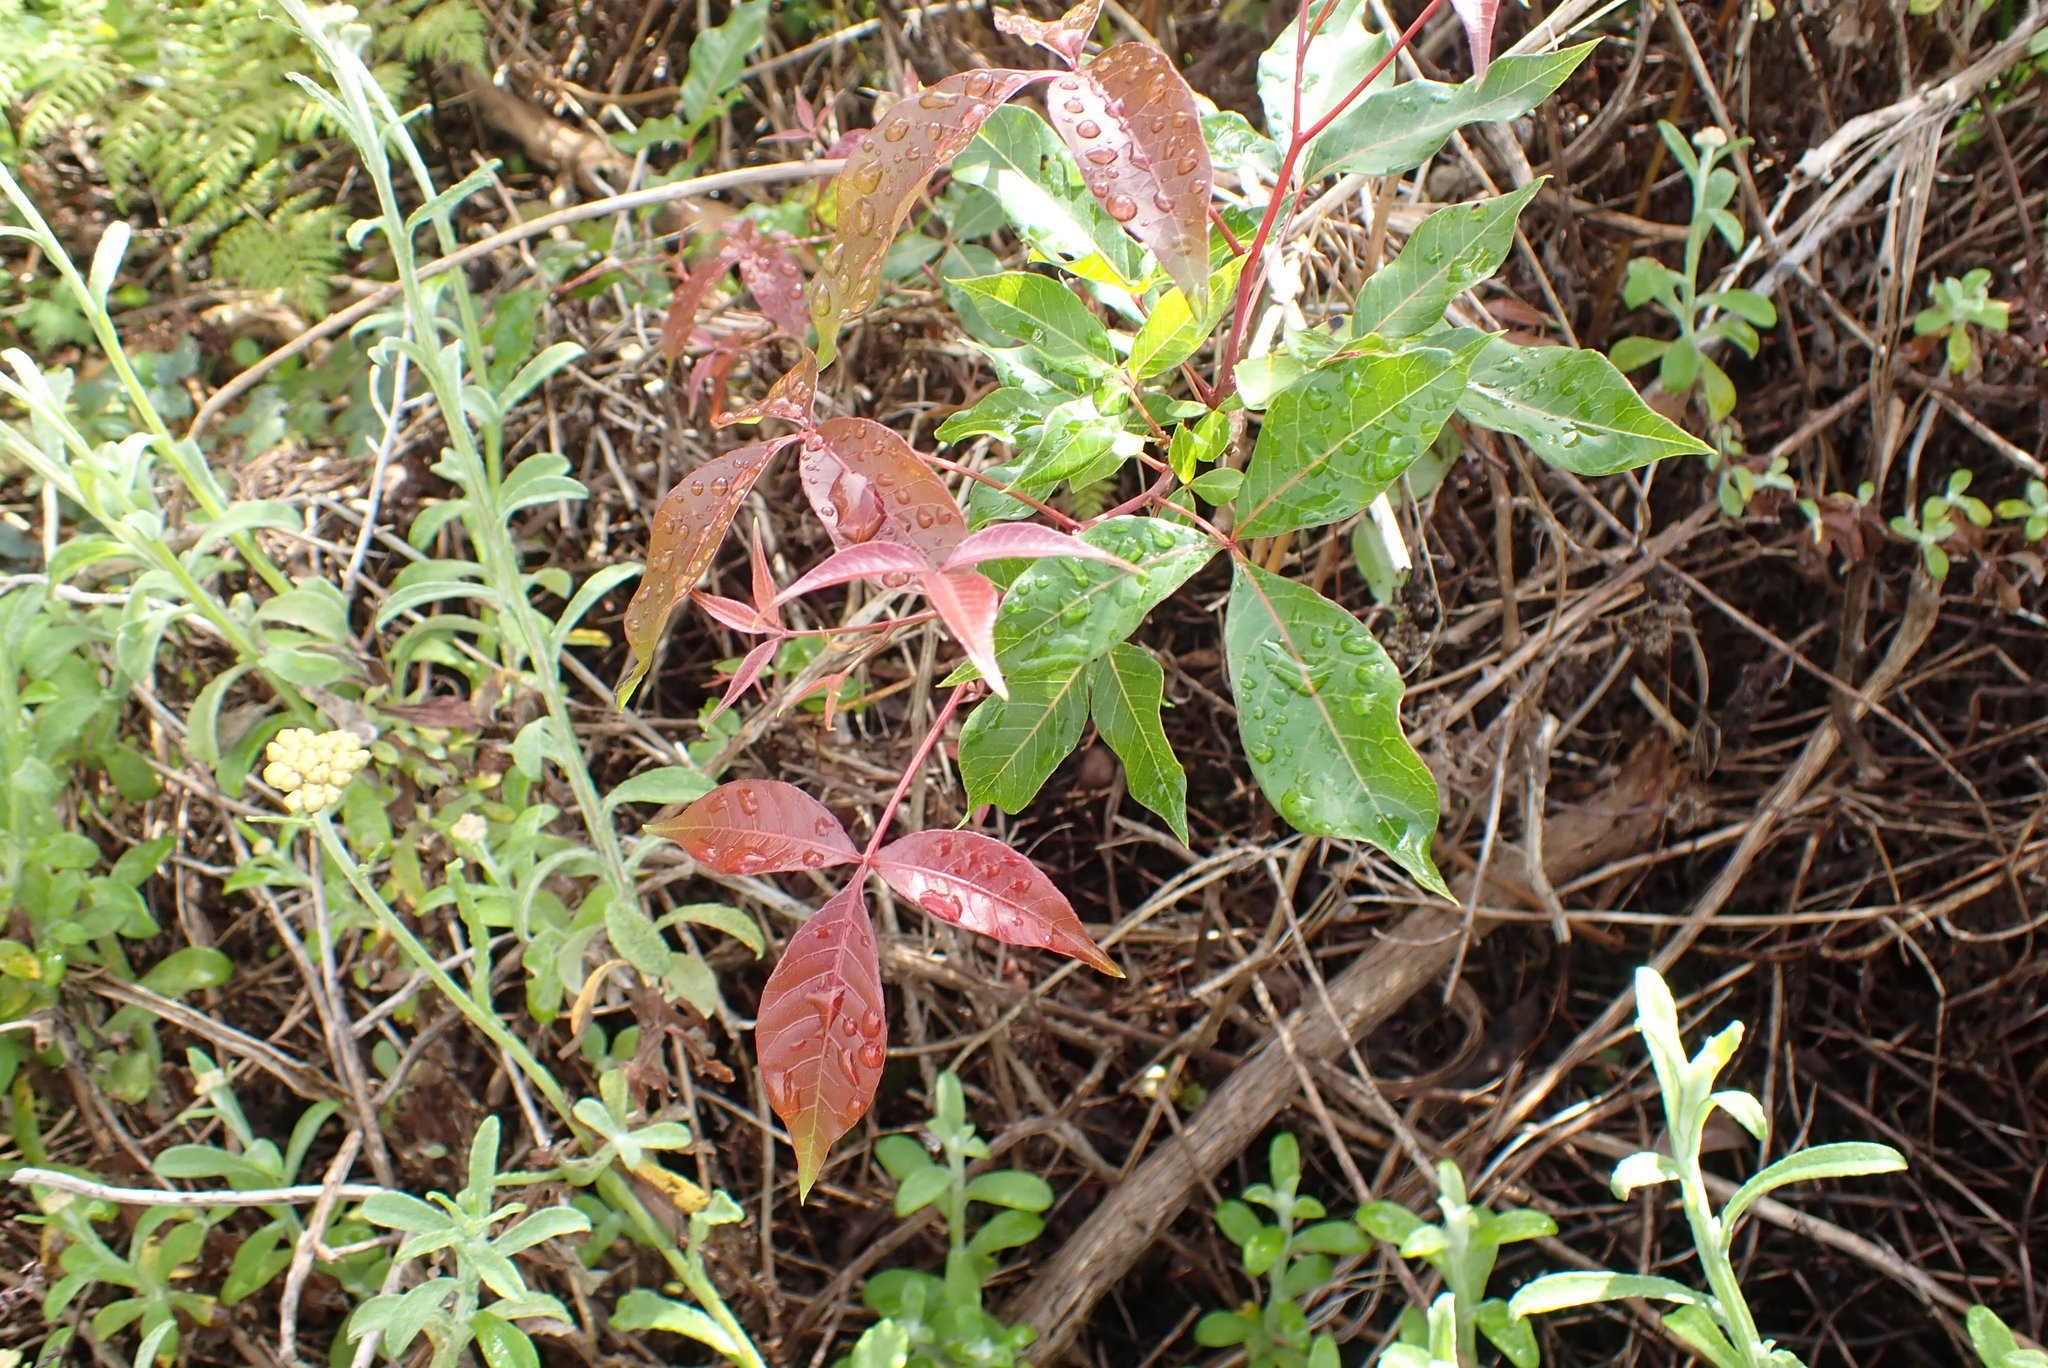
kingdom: Plantae
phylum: Tracheophyta
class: Magnoliopsida
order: Sapindales
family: Anacardiaceae
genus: Searsia
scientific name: Searsia chirindensis
